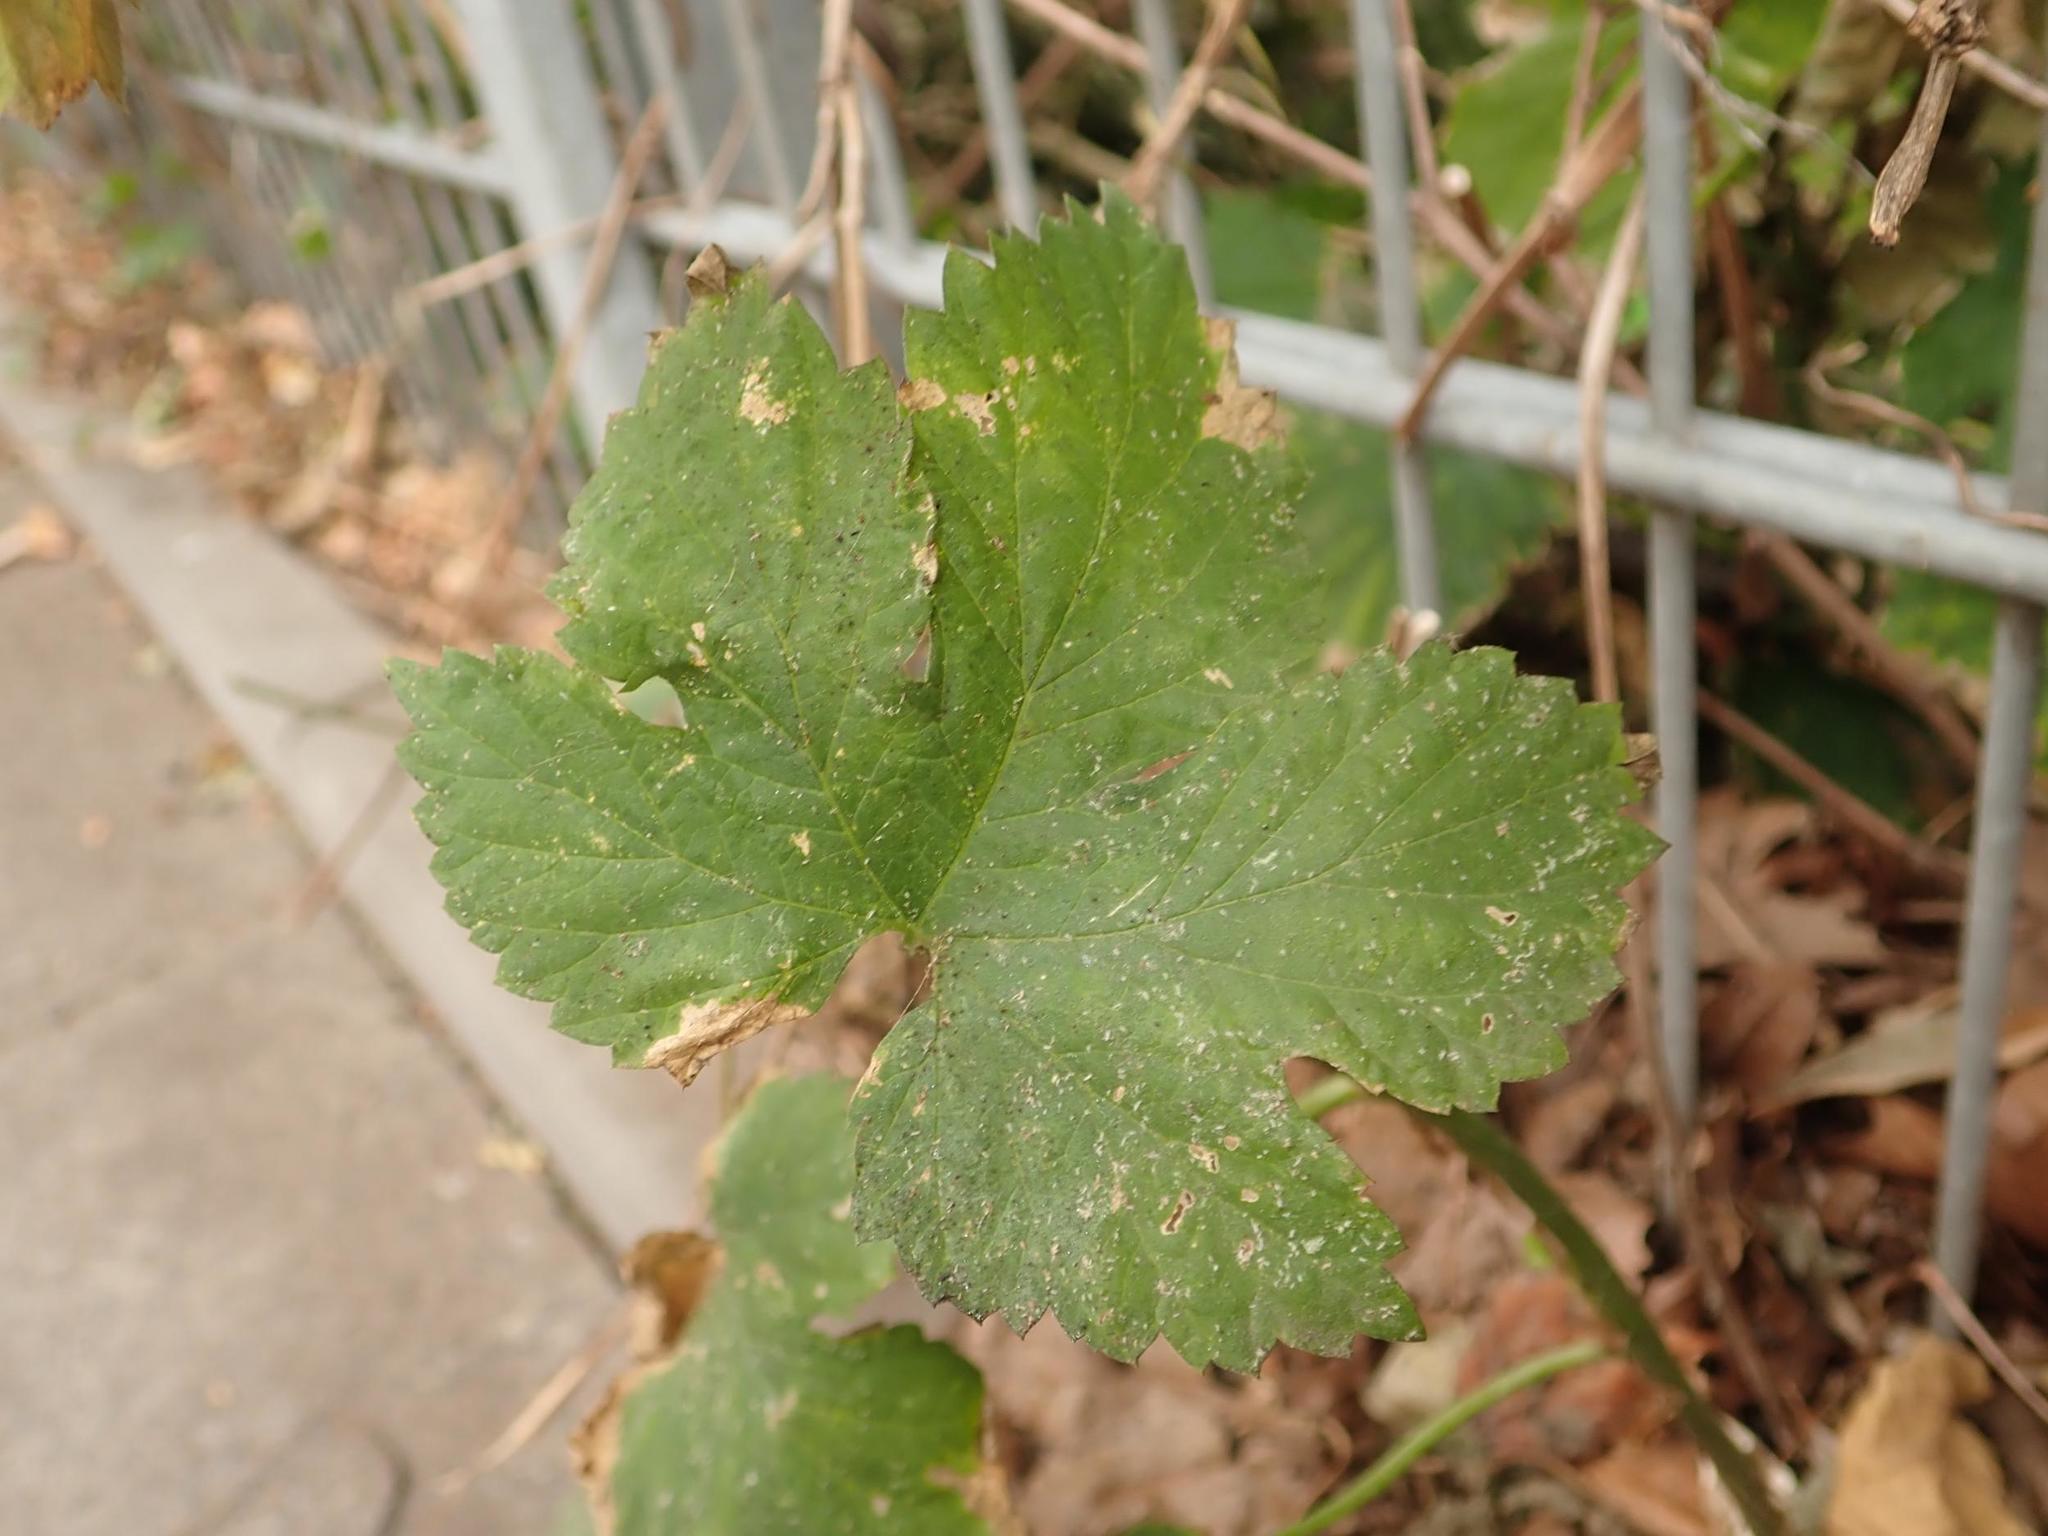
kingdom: Plantae
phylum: Tracheophyta
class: Magnoliopsida
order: Rosales
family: Cannabaceae
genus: Humulus
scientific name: Humulus lupulus
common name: Hop
